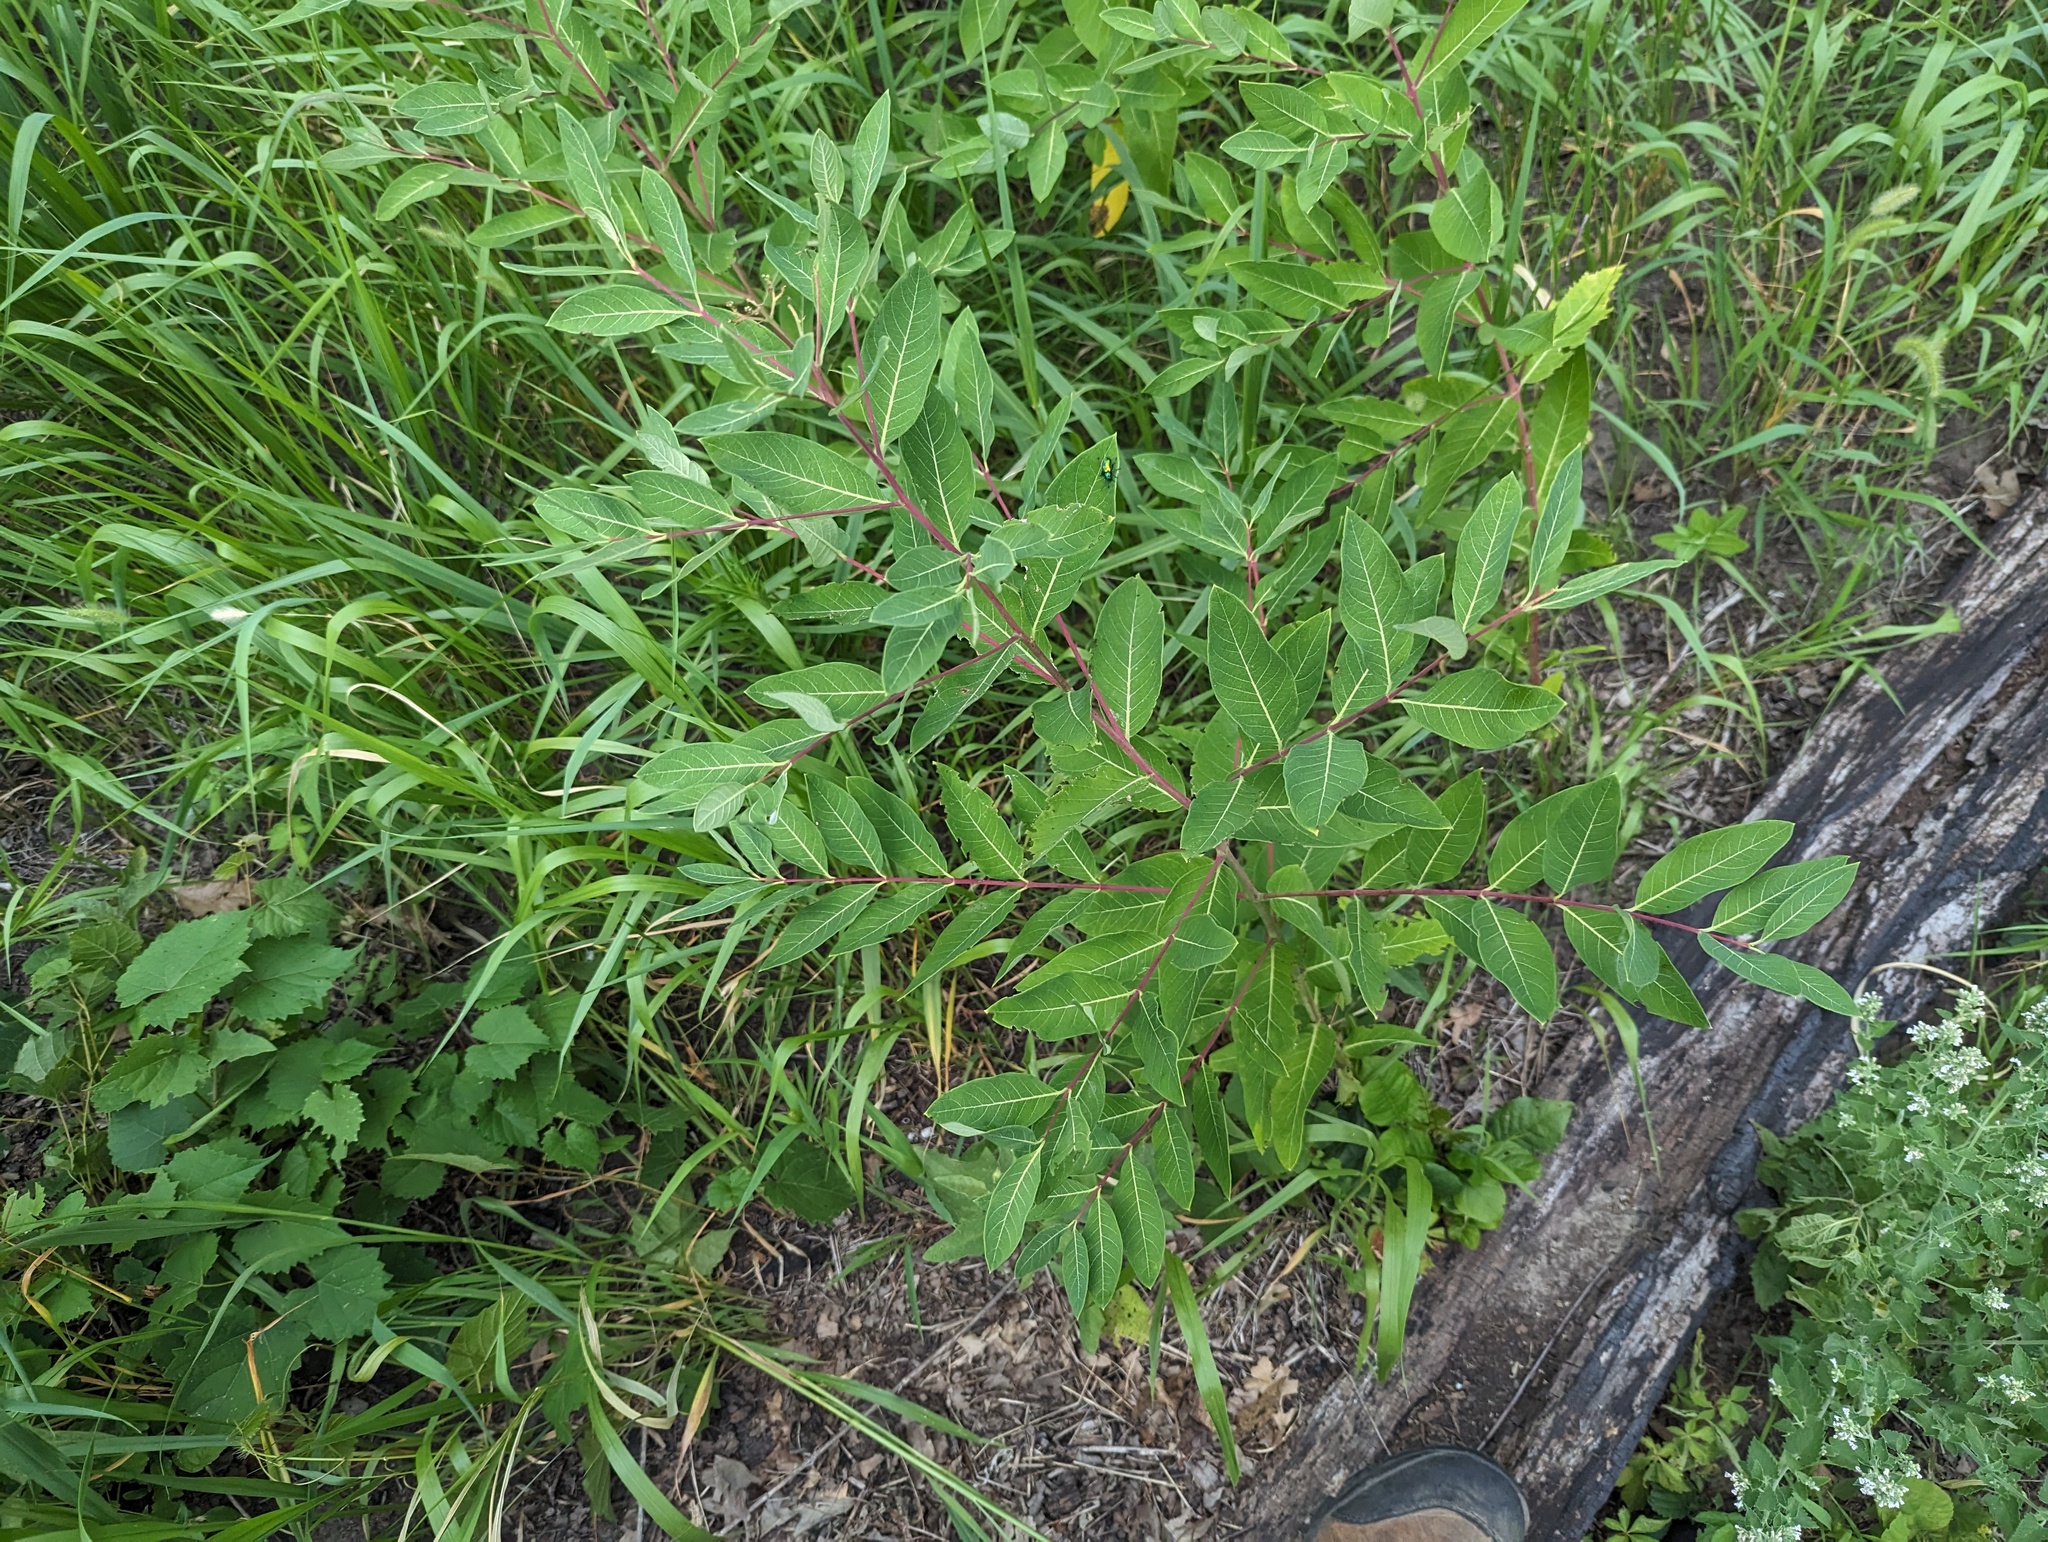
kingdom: Plantae
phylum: Tracheophyta
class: Magnoliopsida
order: Gentianales
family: Apocynaceae
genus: Apocynum
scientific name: Apocynum cannabinum
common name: Hemp dogbane
